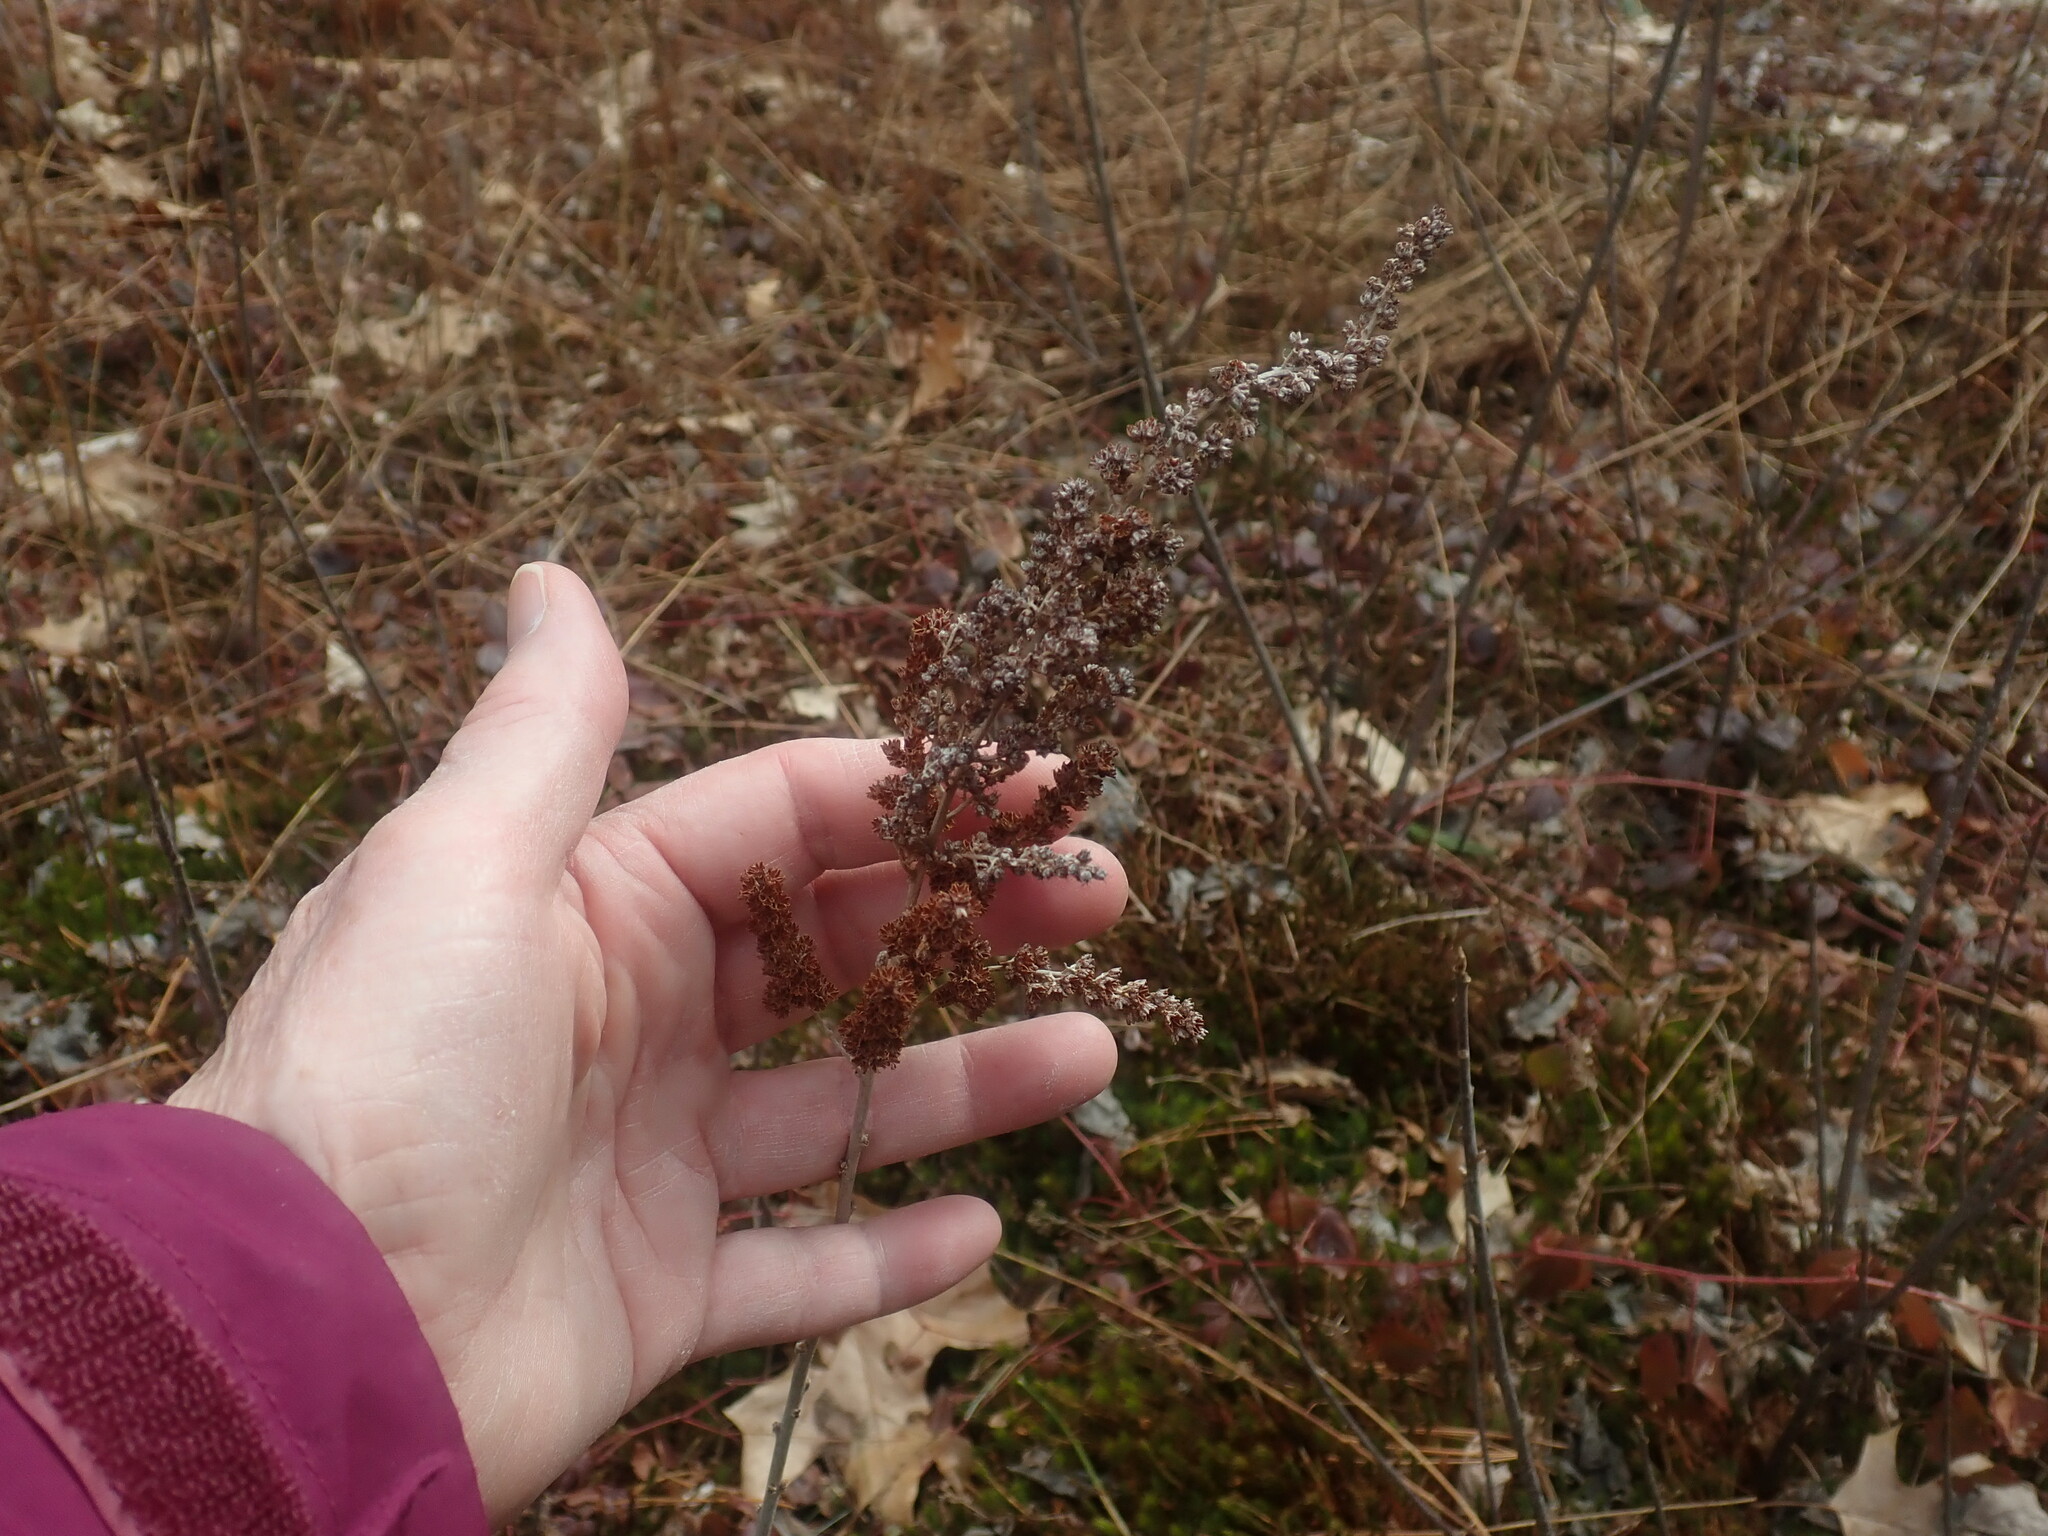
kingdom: Plantae
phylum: Tracheophyta
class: Magnoliopsida
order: Rosales
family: Rosaceae
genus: Spiraea
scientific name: Spiraea tomentosa
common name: Hardhack
